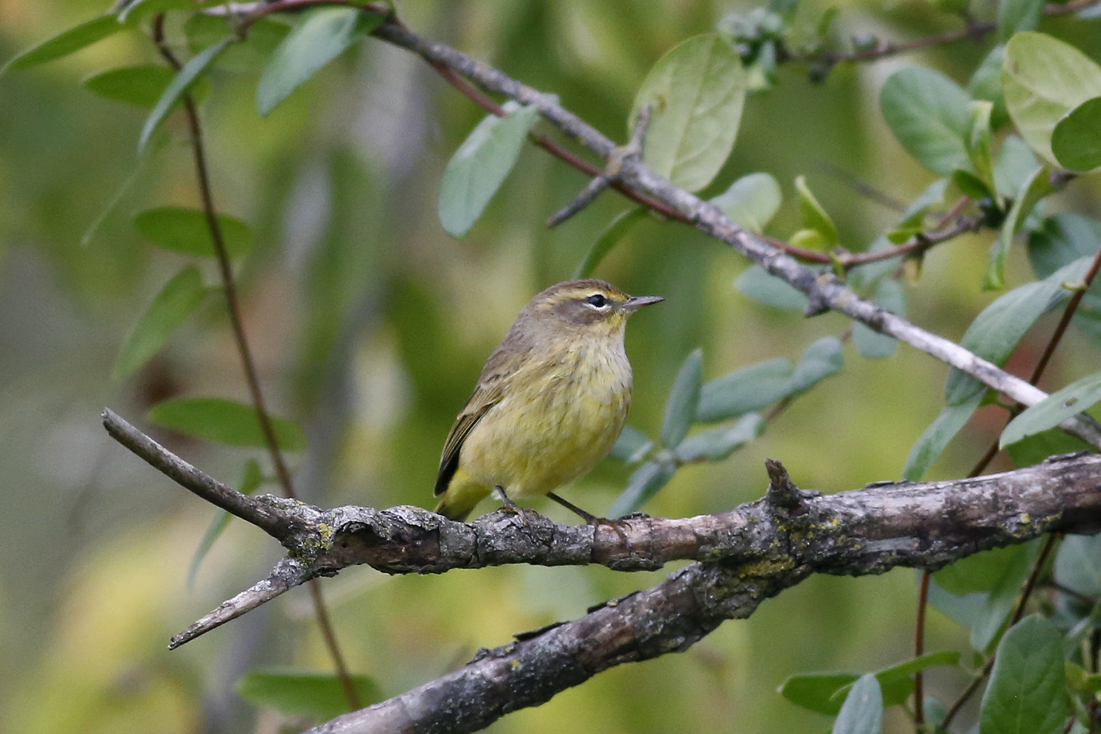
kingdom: Animalia
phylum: Chordata
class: Aves
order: Passeriformes
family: Parulidae
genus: Setophaga
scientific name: Setophaga palmarum
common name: Palm warbler
